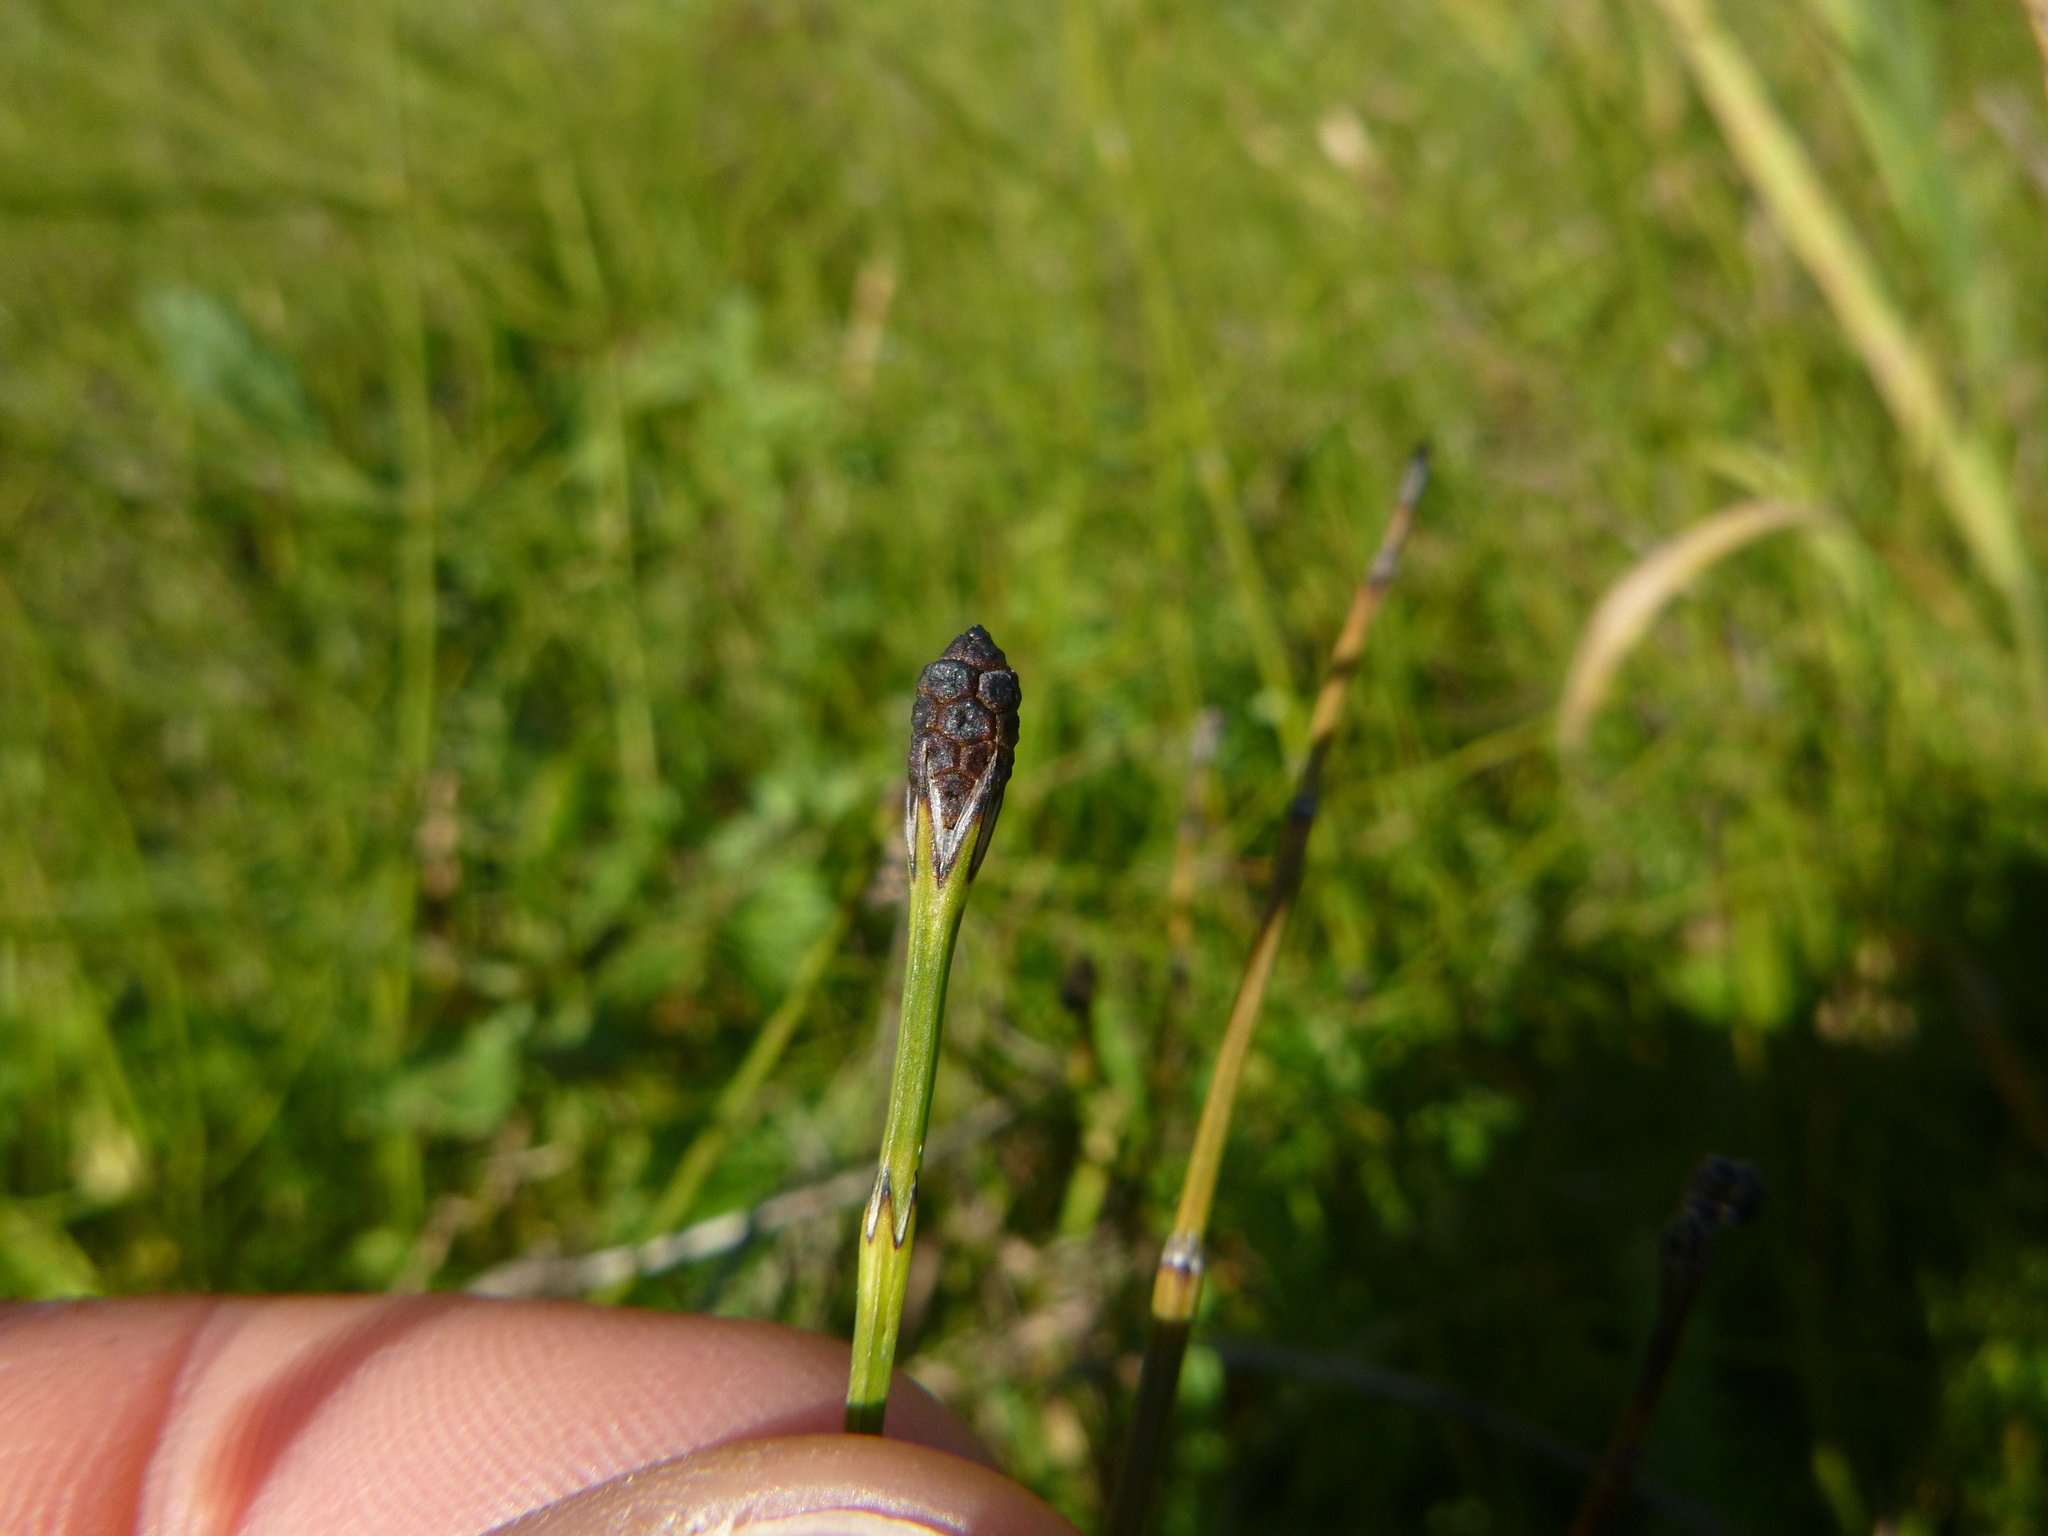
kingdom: Plantae
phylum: Tracheophyta
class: Polypodiopsida
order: Equisetales
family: Equisetaceae
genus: Equisetum
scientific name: Equisetum palustre
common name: Marsh horsetail
